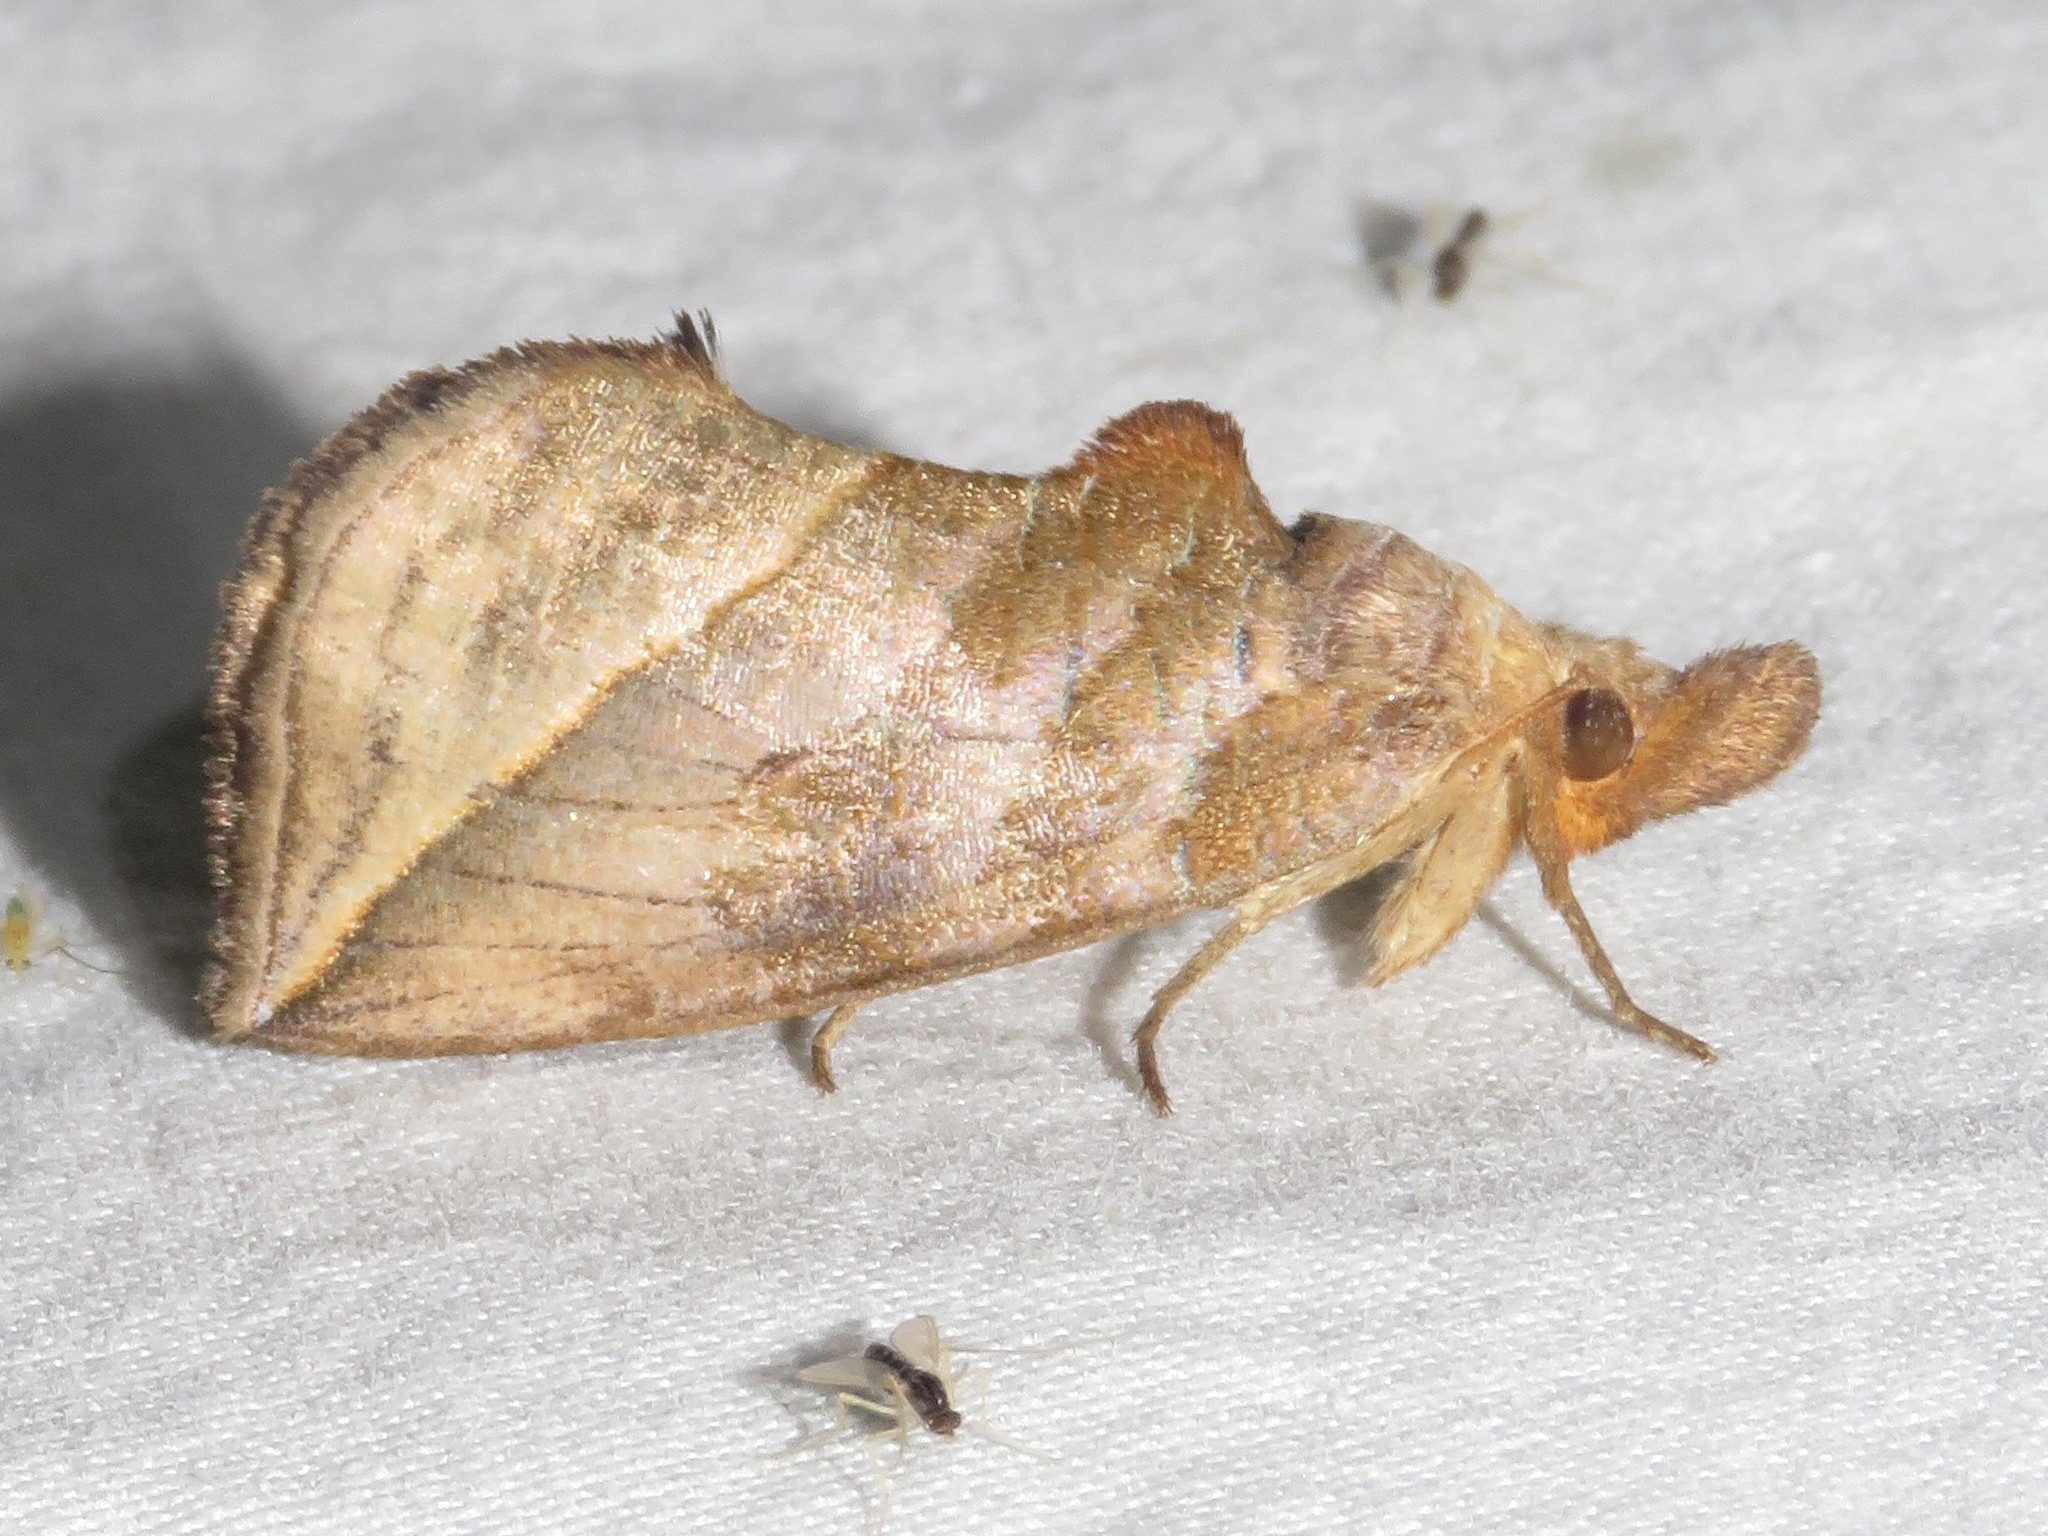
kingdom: Animalia
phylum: Arthropoda
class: Insecta
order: Lepidoptera
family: Erebidae
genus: Calyptra
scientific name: Calyptra canadensis
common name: Canadian owlet
